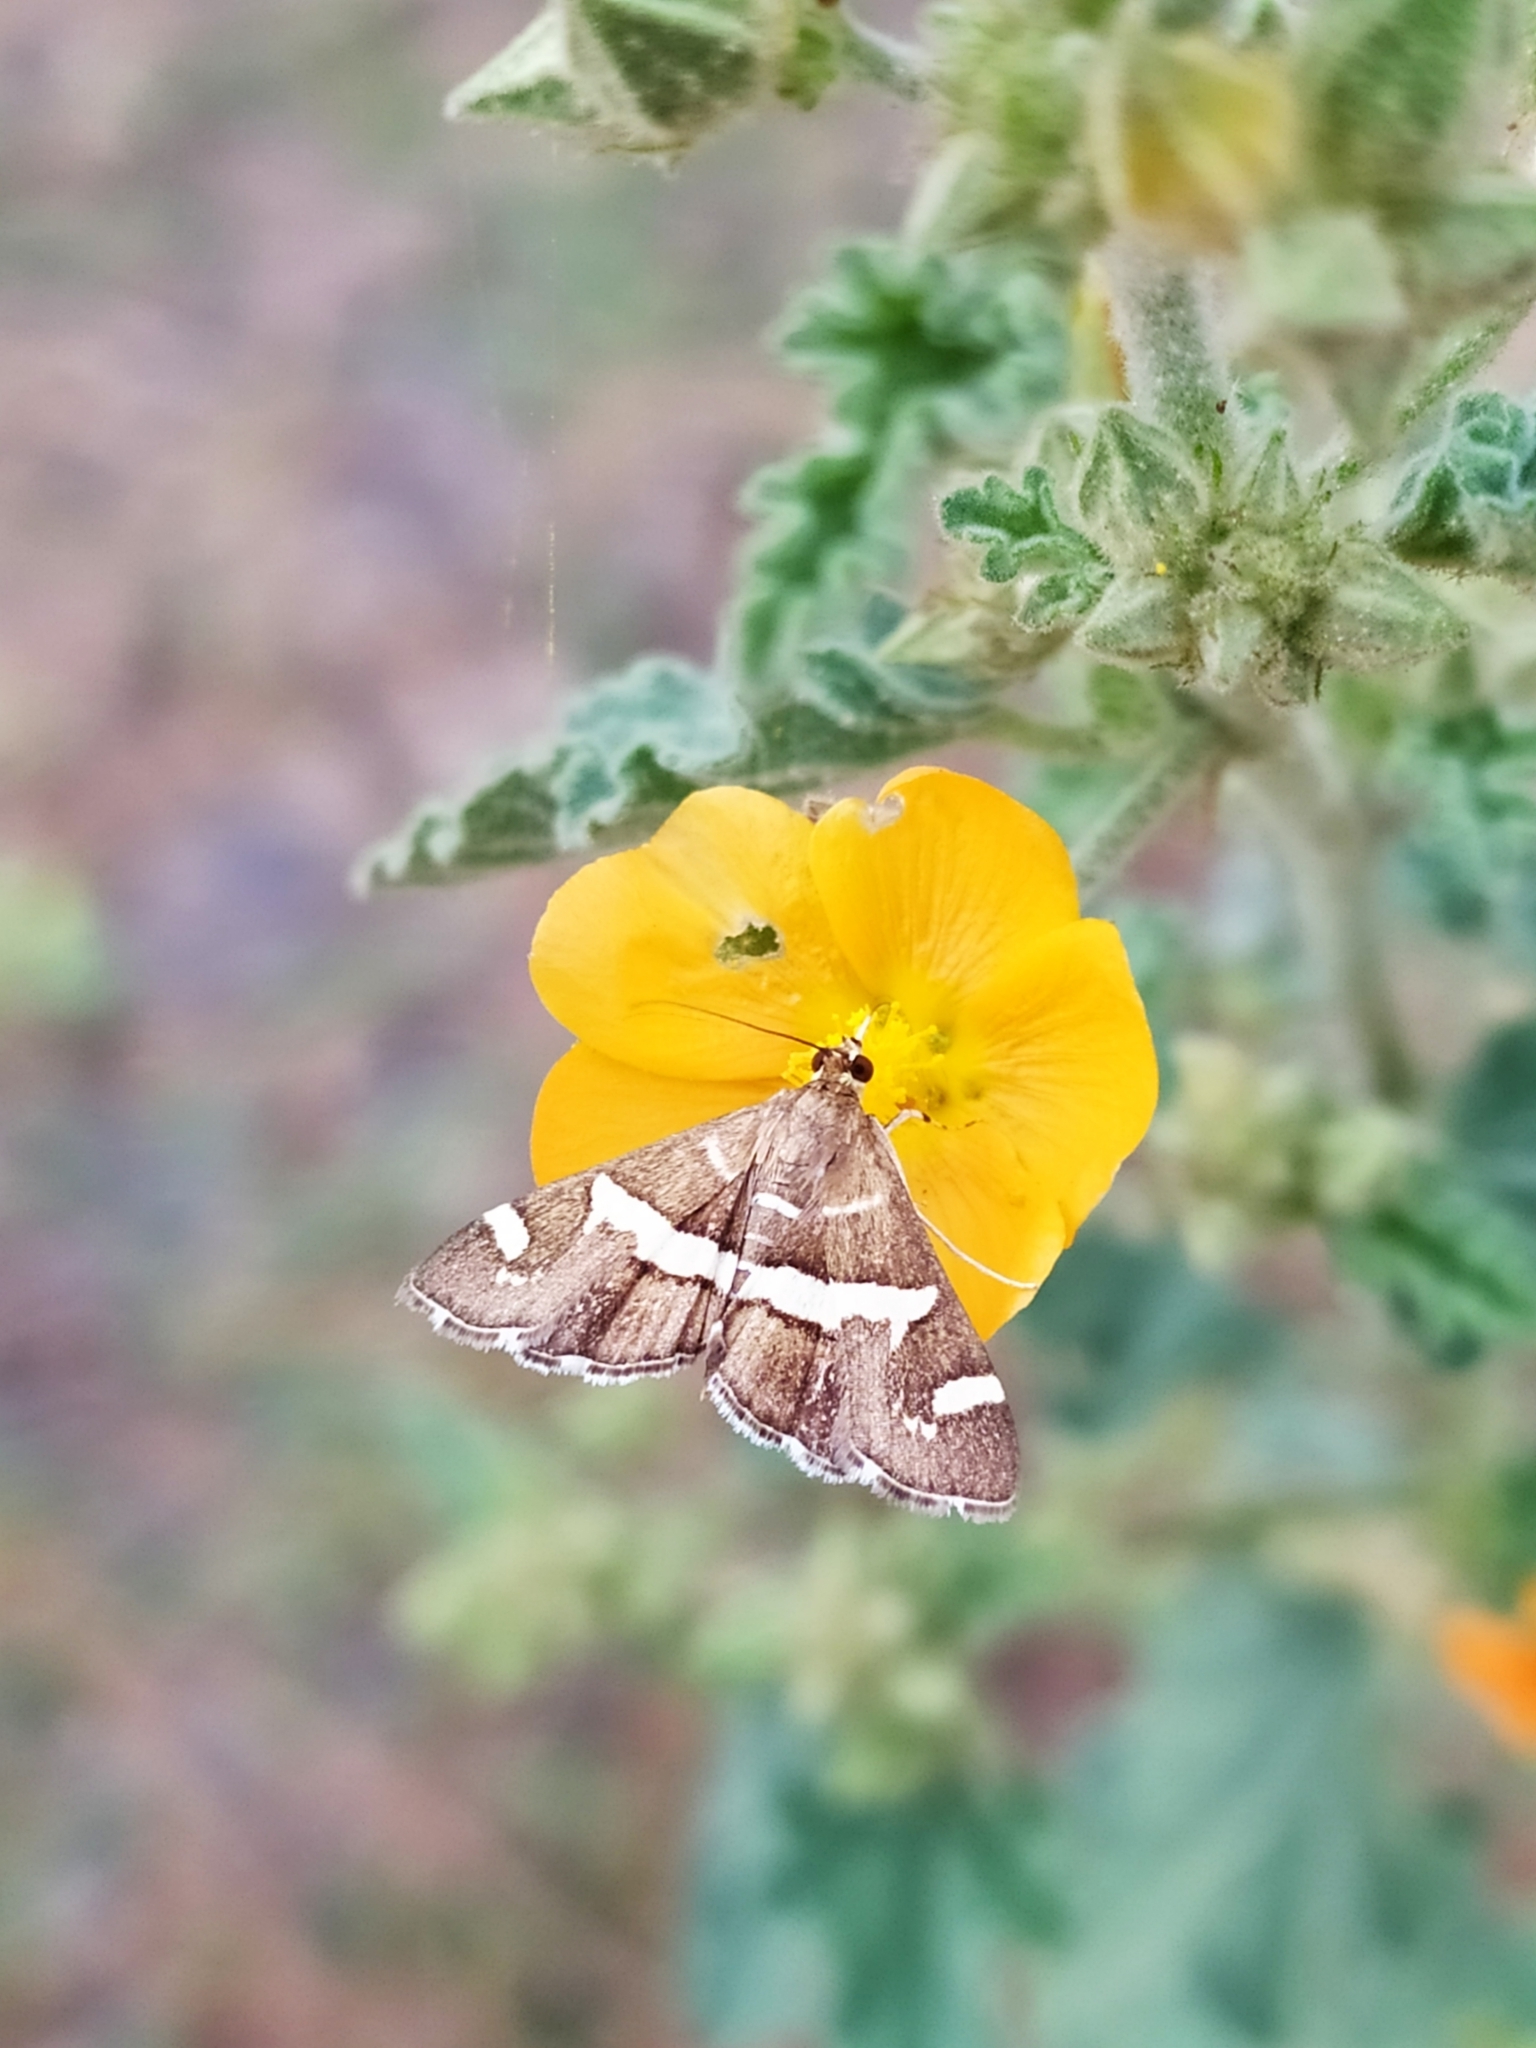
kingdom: Animalia
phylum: Arthropoda
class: Insecta
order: Lepidoptera
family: Crambidae
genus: Spoladea
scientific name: Spoladea recurvalis
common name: Beet webworm moth
